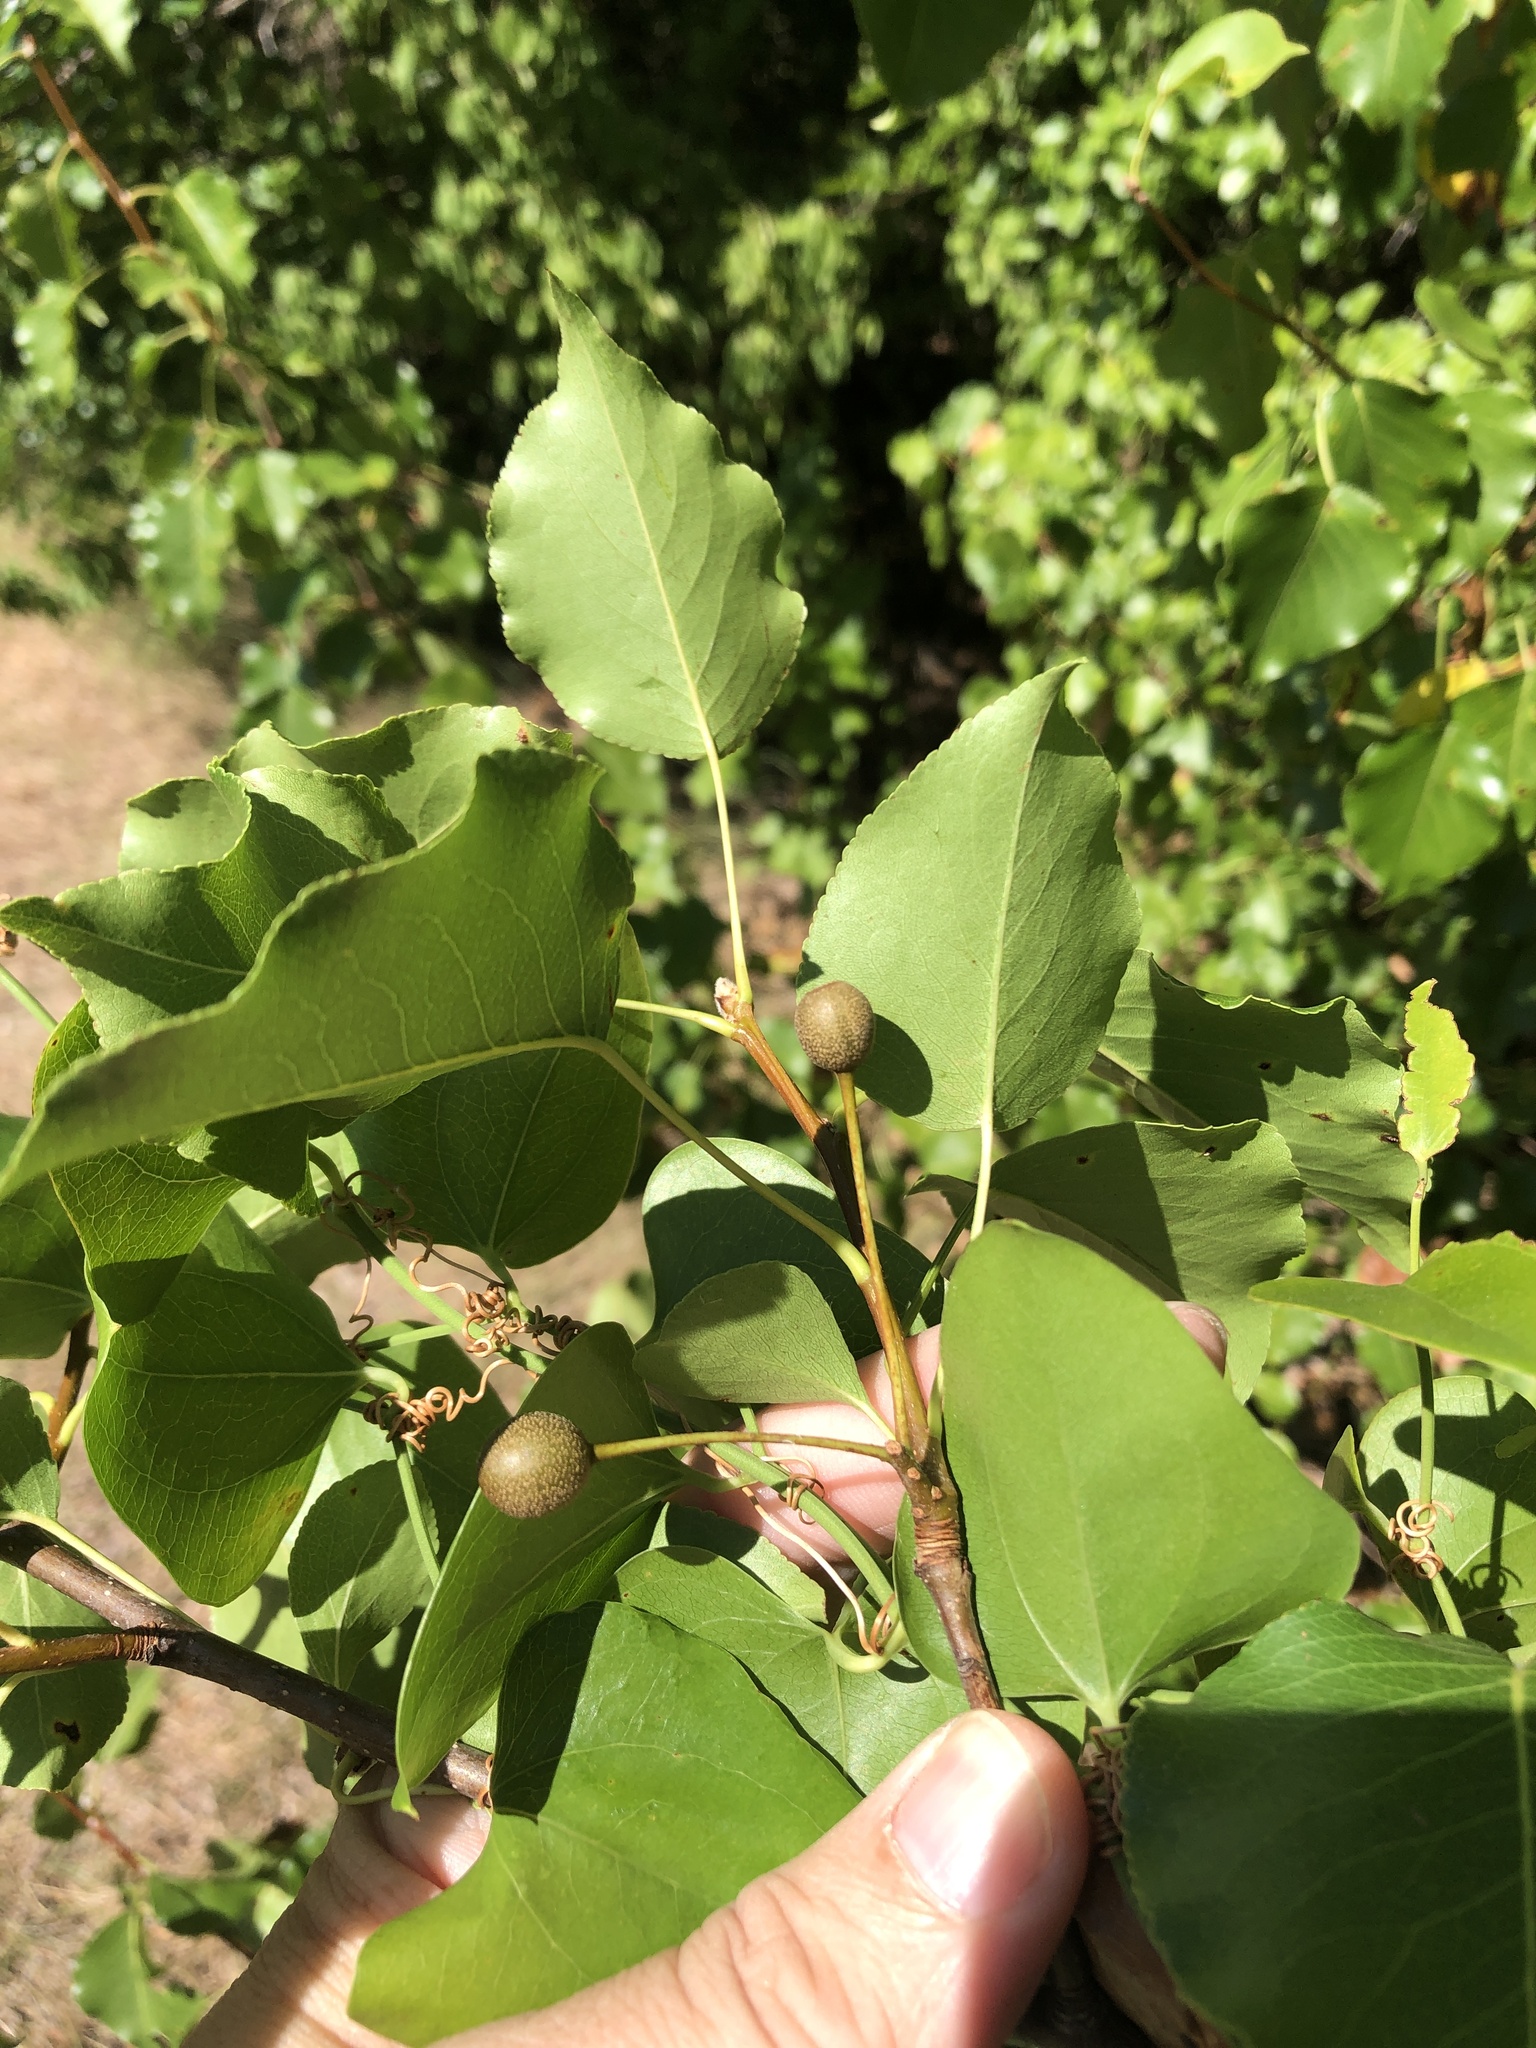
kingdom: Plantae
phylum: Tracheophyta
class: Magnoliopsida
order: Rosales
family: Rosaceae
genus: Pyrus
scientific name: Pyrus calleryana
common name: Callery pear
